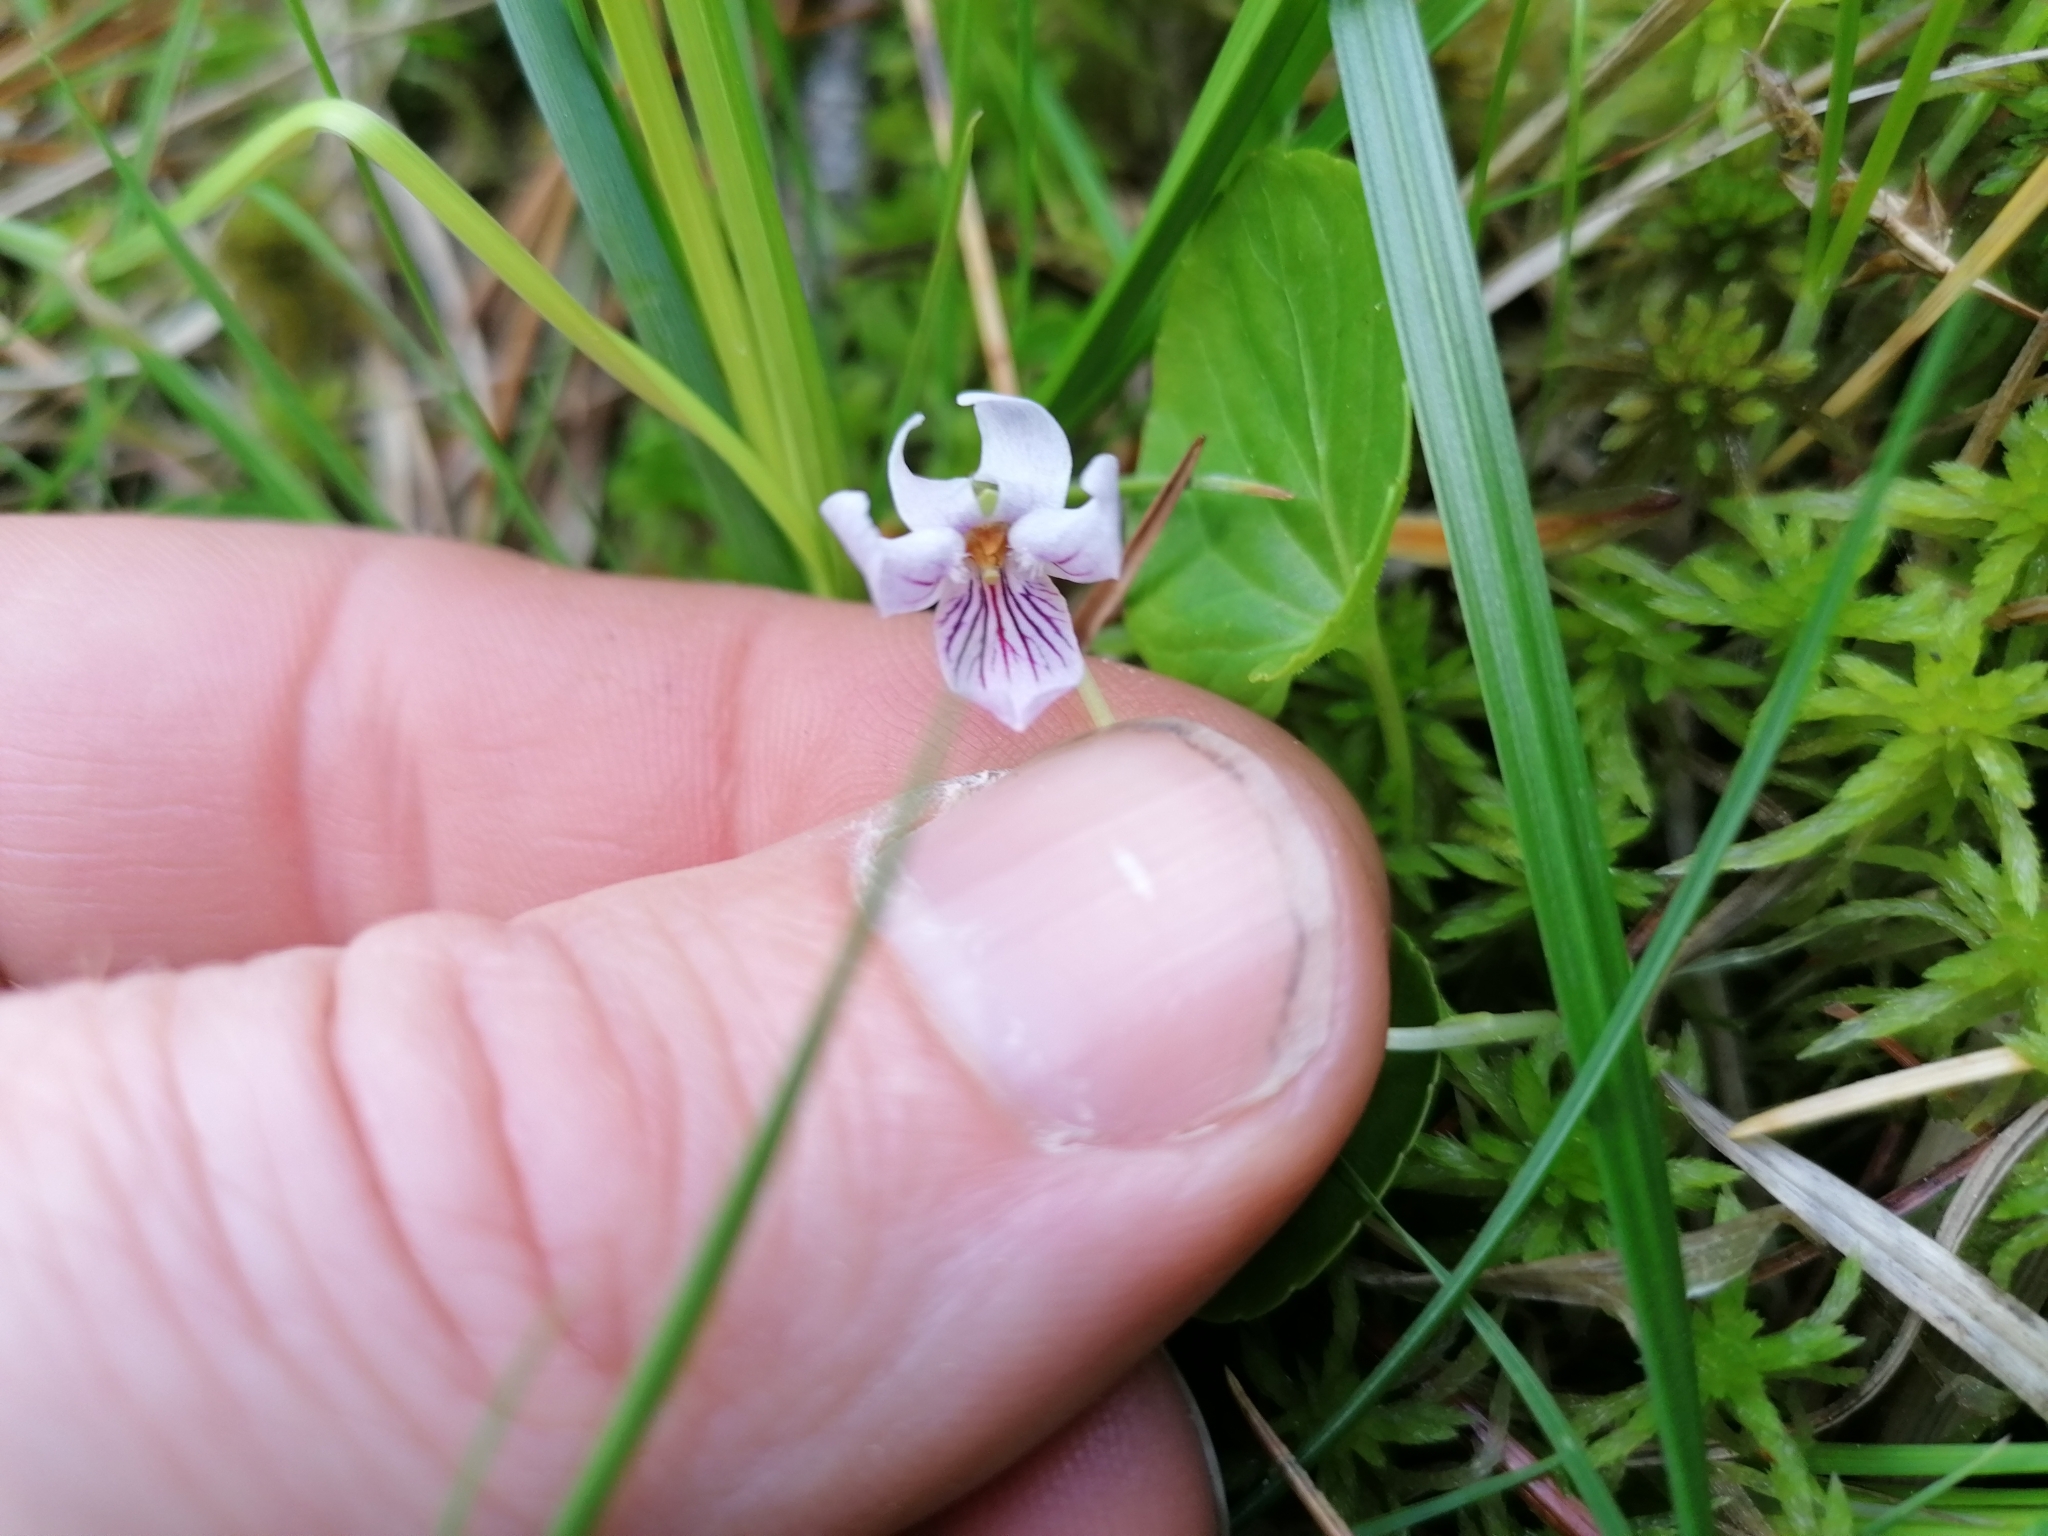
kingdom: Plantae
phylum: Tracheophyta
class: Magnoliopsida
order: Malpighiales
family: Violaceae
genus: Viola
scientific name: Viola palustris
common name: Marsh violet
